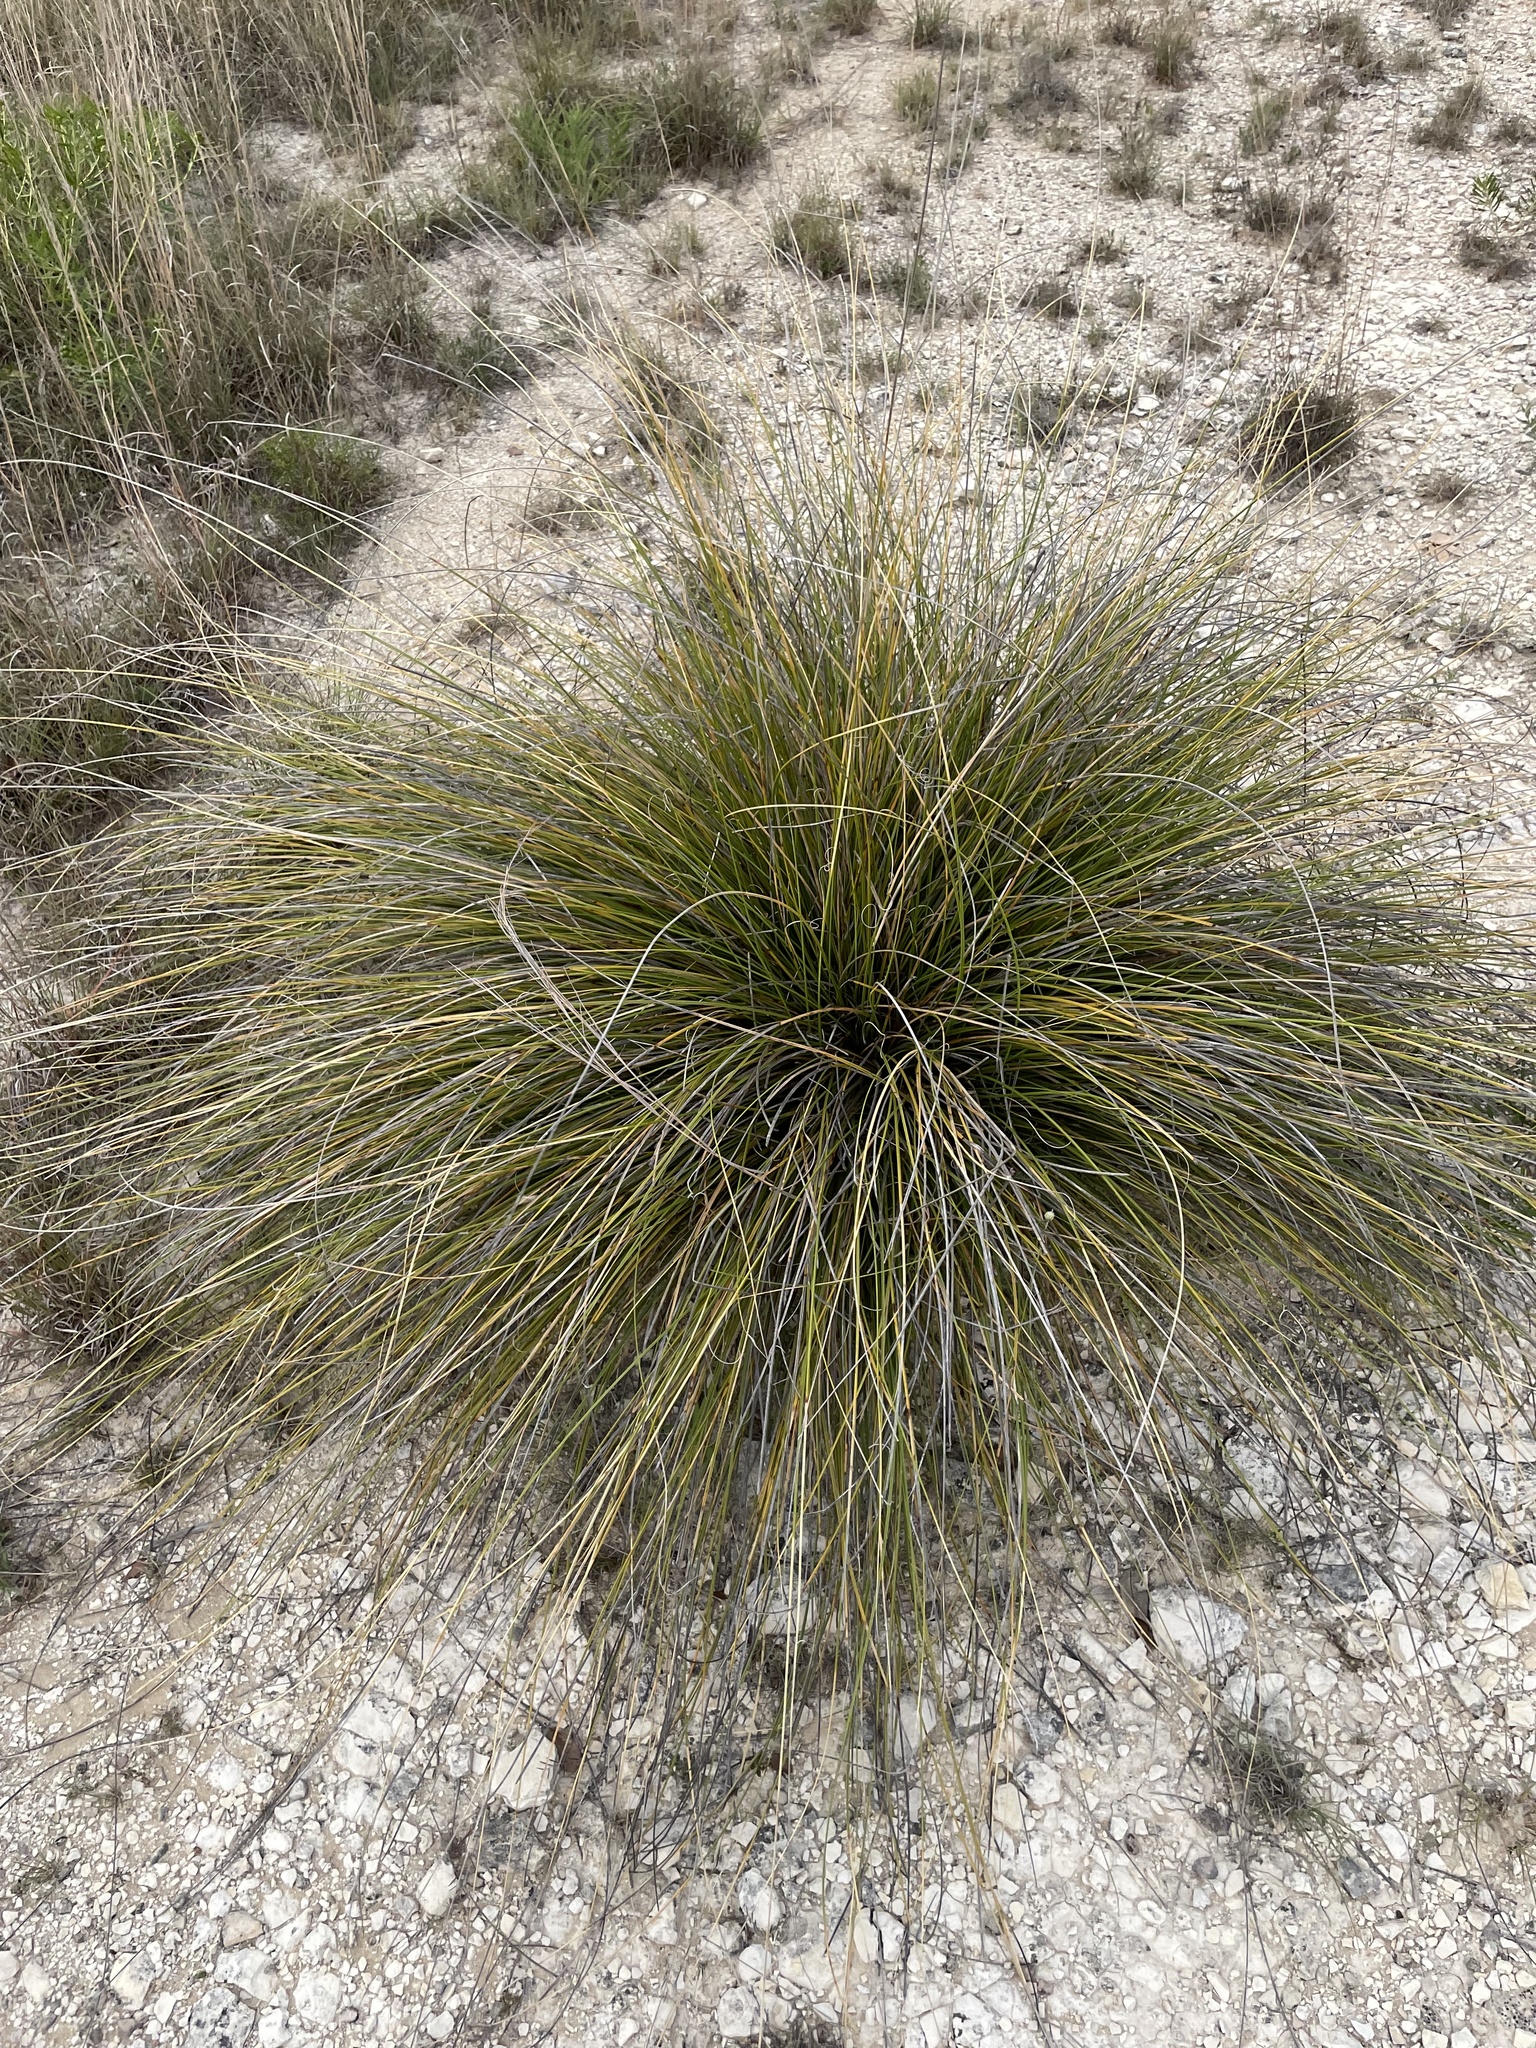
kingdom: Plantae
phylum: Tracheophyta
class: Liliopsida
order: Asparagales
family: Asparagaceae
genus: Nolina
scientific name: Nolina texana
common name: Texas sacahuiste
